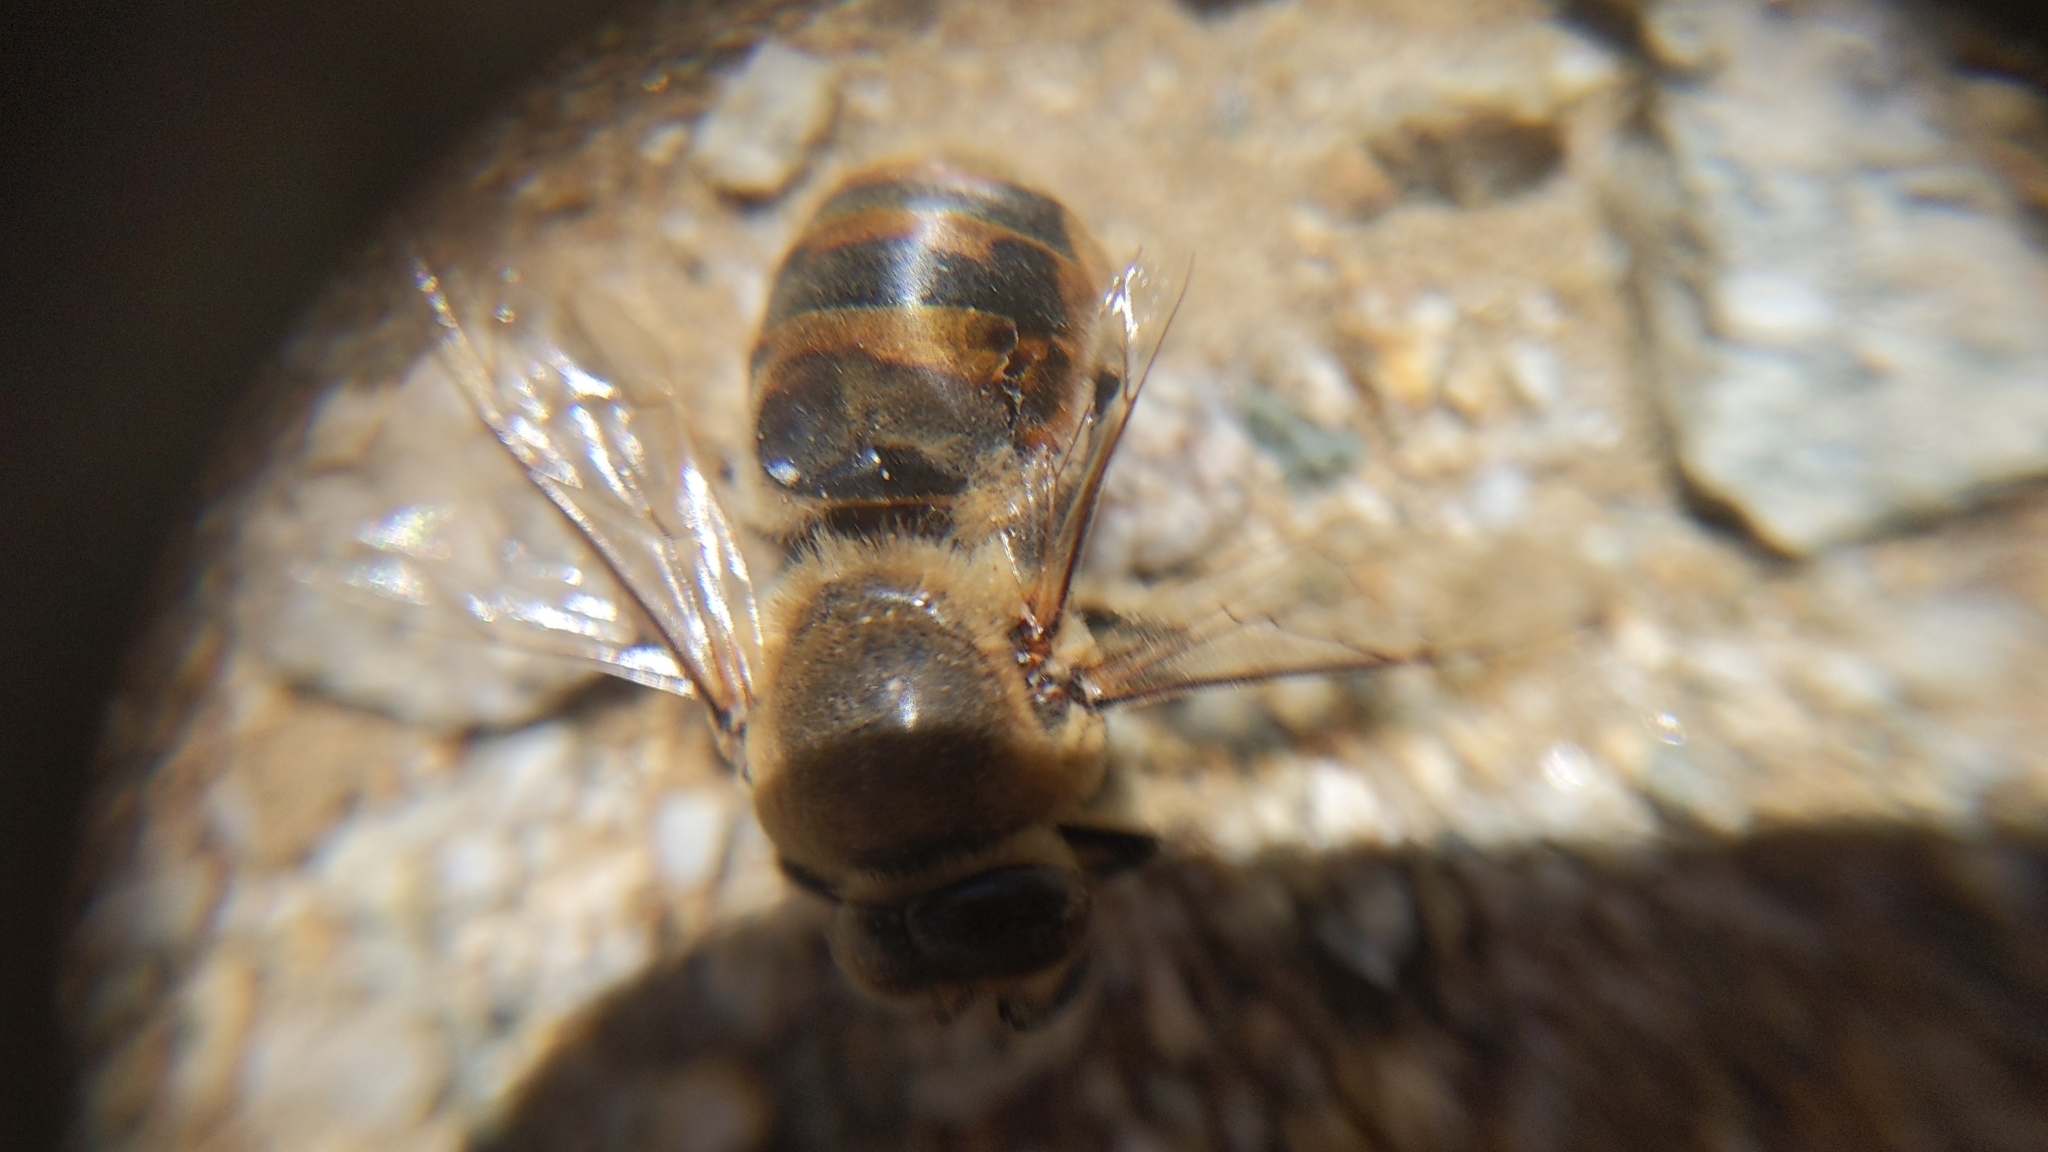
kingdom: Animalia
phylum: Arthropoda
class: Insecta
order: Hymenoptera
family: Apidae
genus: Apis
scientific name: Apis mellifera
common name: Honey bee
